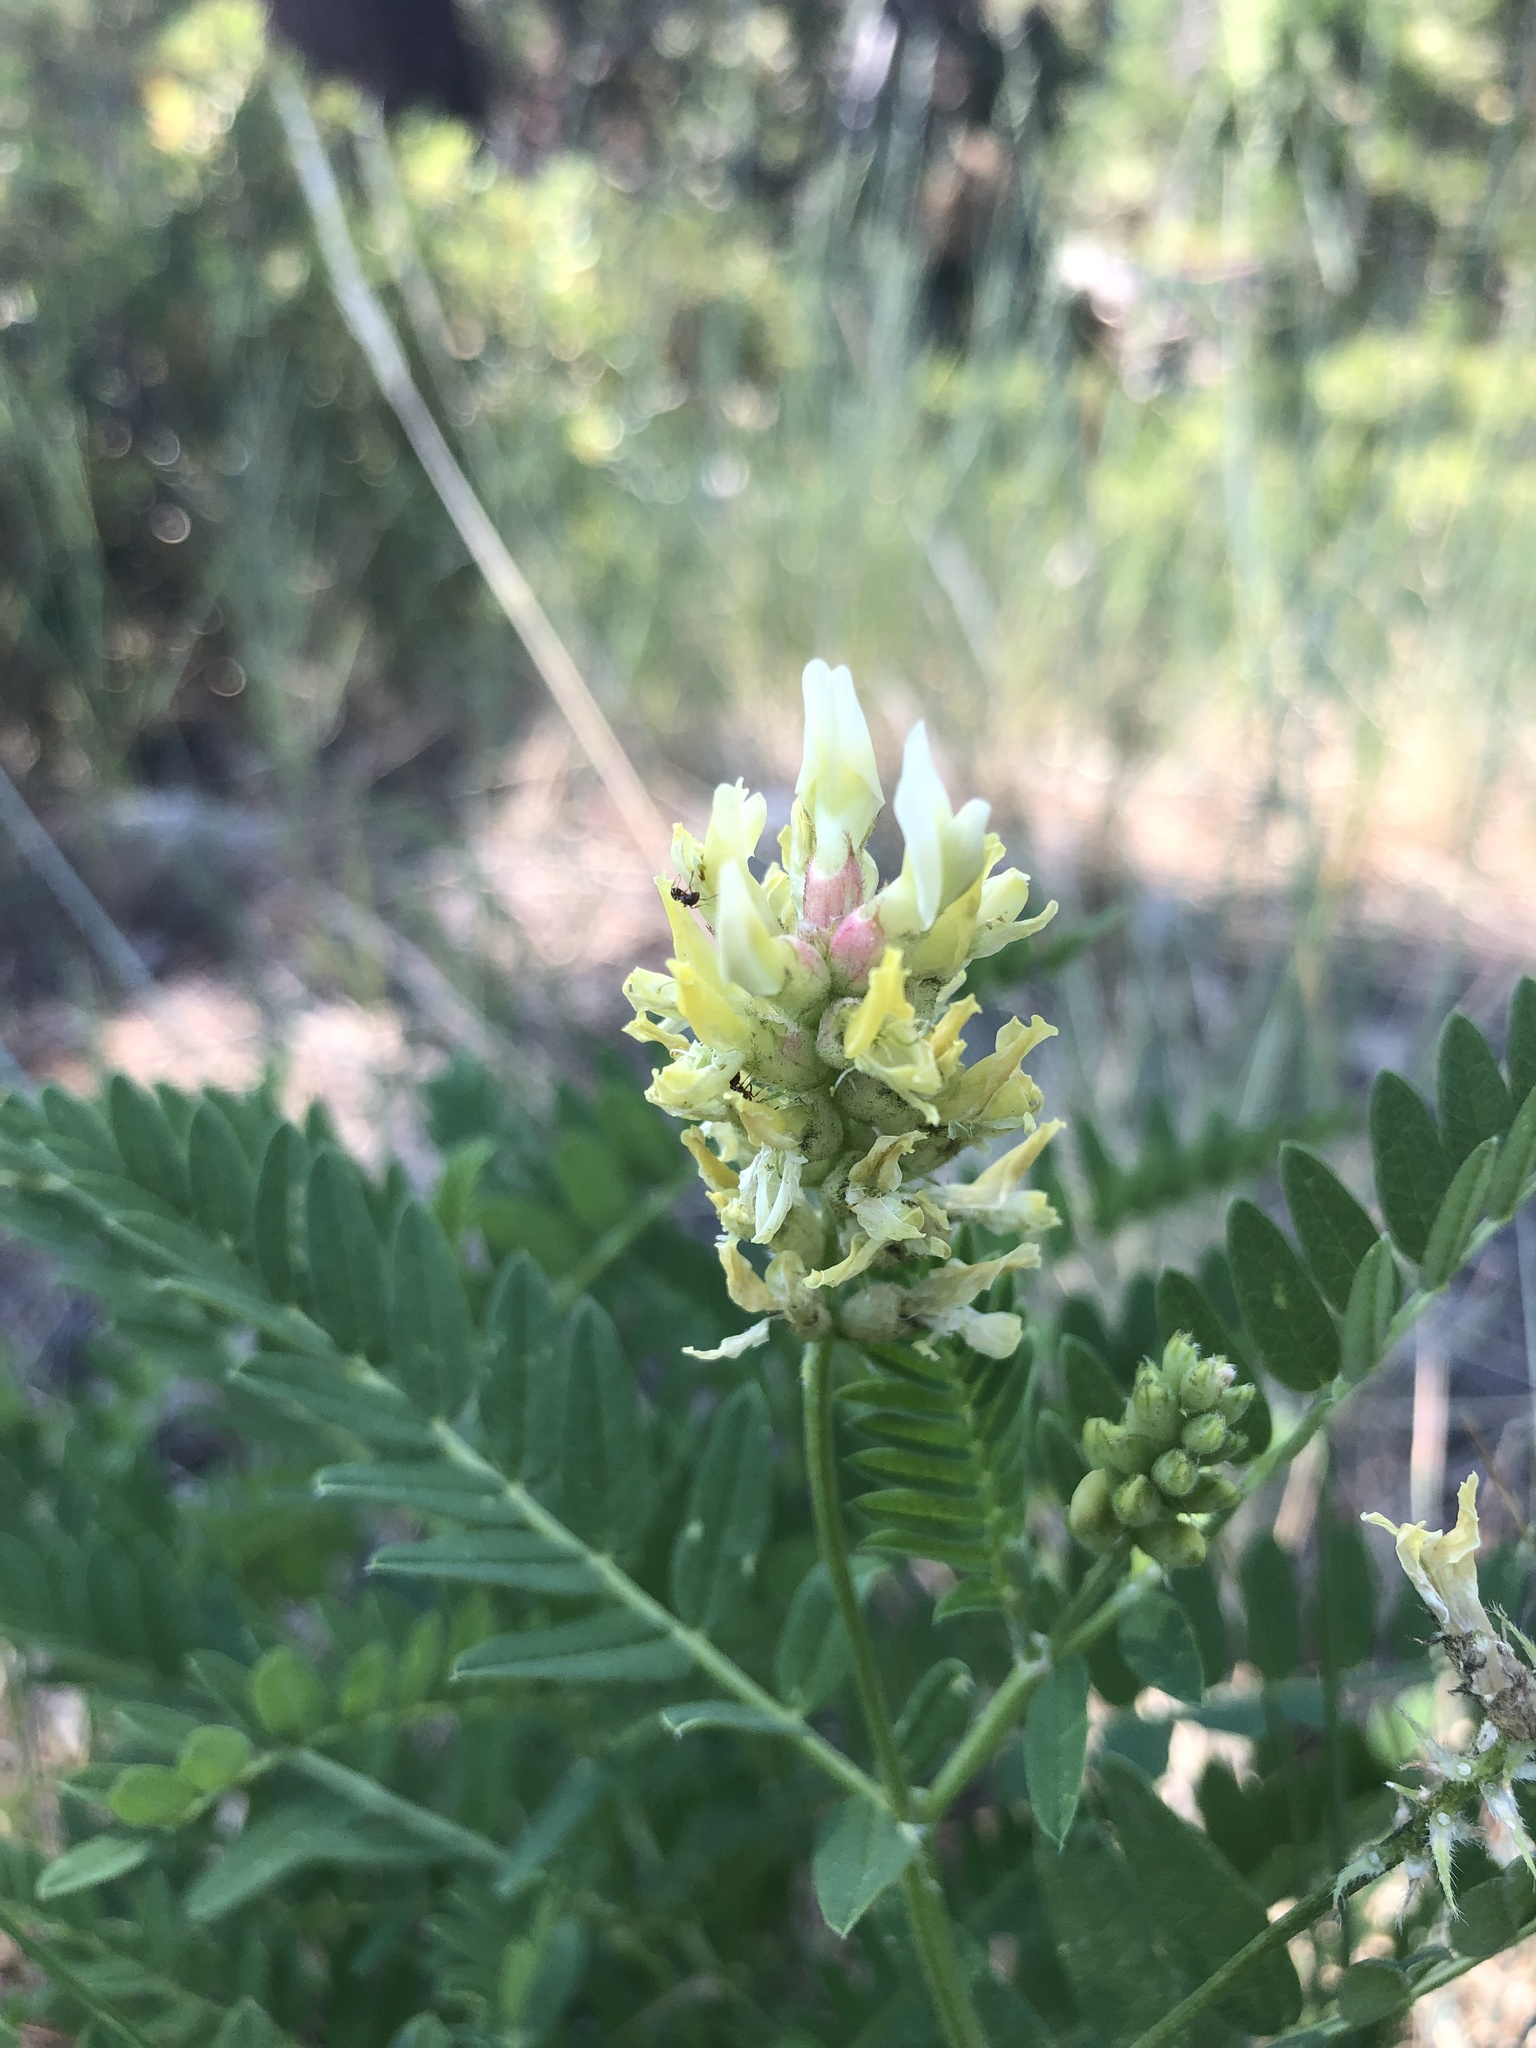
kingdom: Plantae
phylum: Tracheophyta
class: Magnoliopsida
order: Fabales
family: Fabaceae
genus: Astragalus
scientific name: Astragalus cicer
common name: Chick-pea milk-vetch
